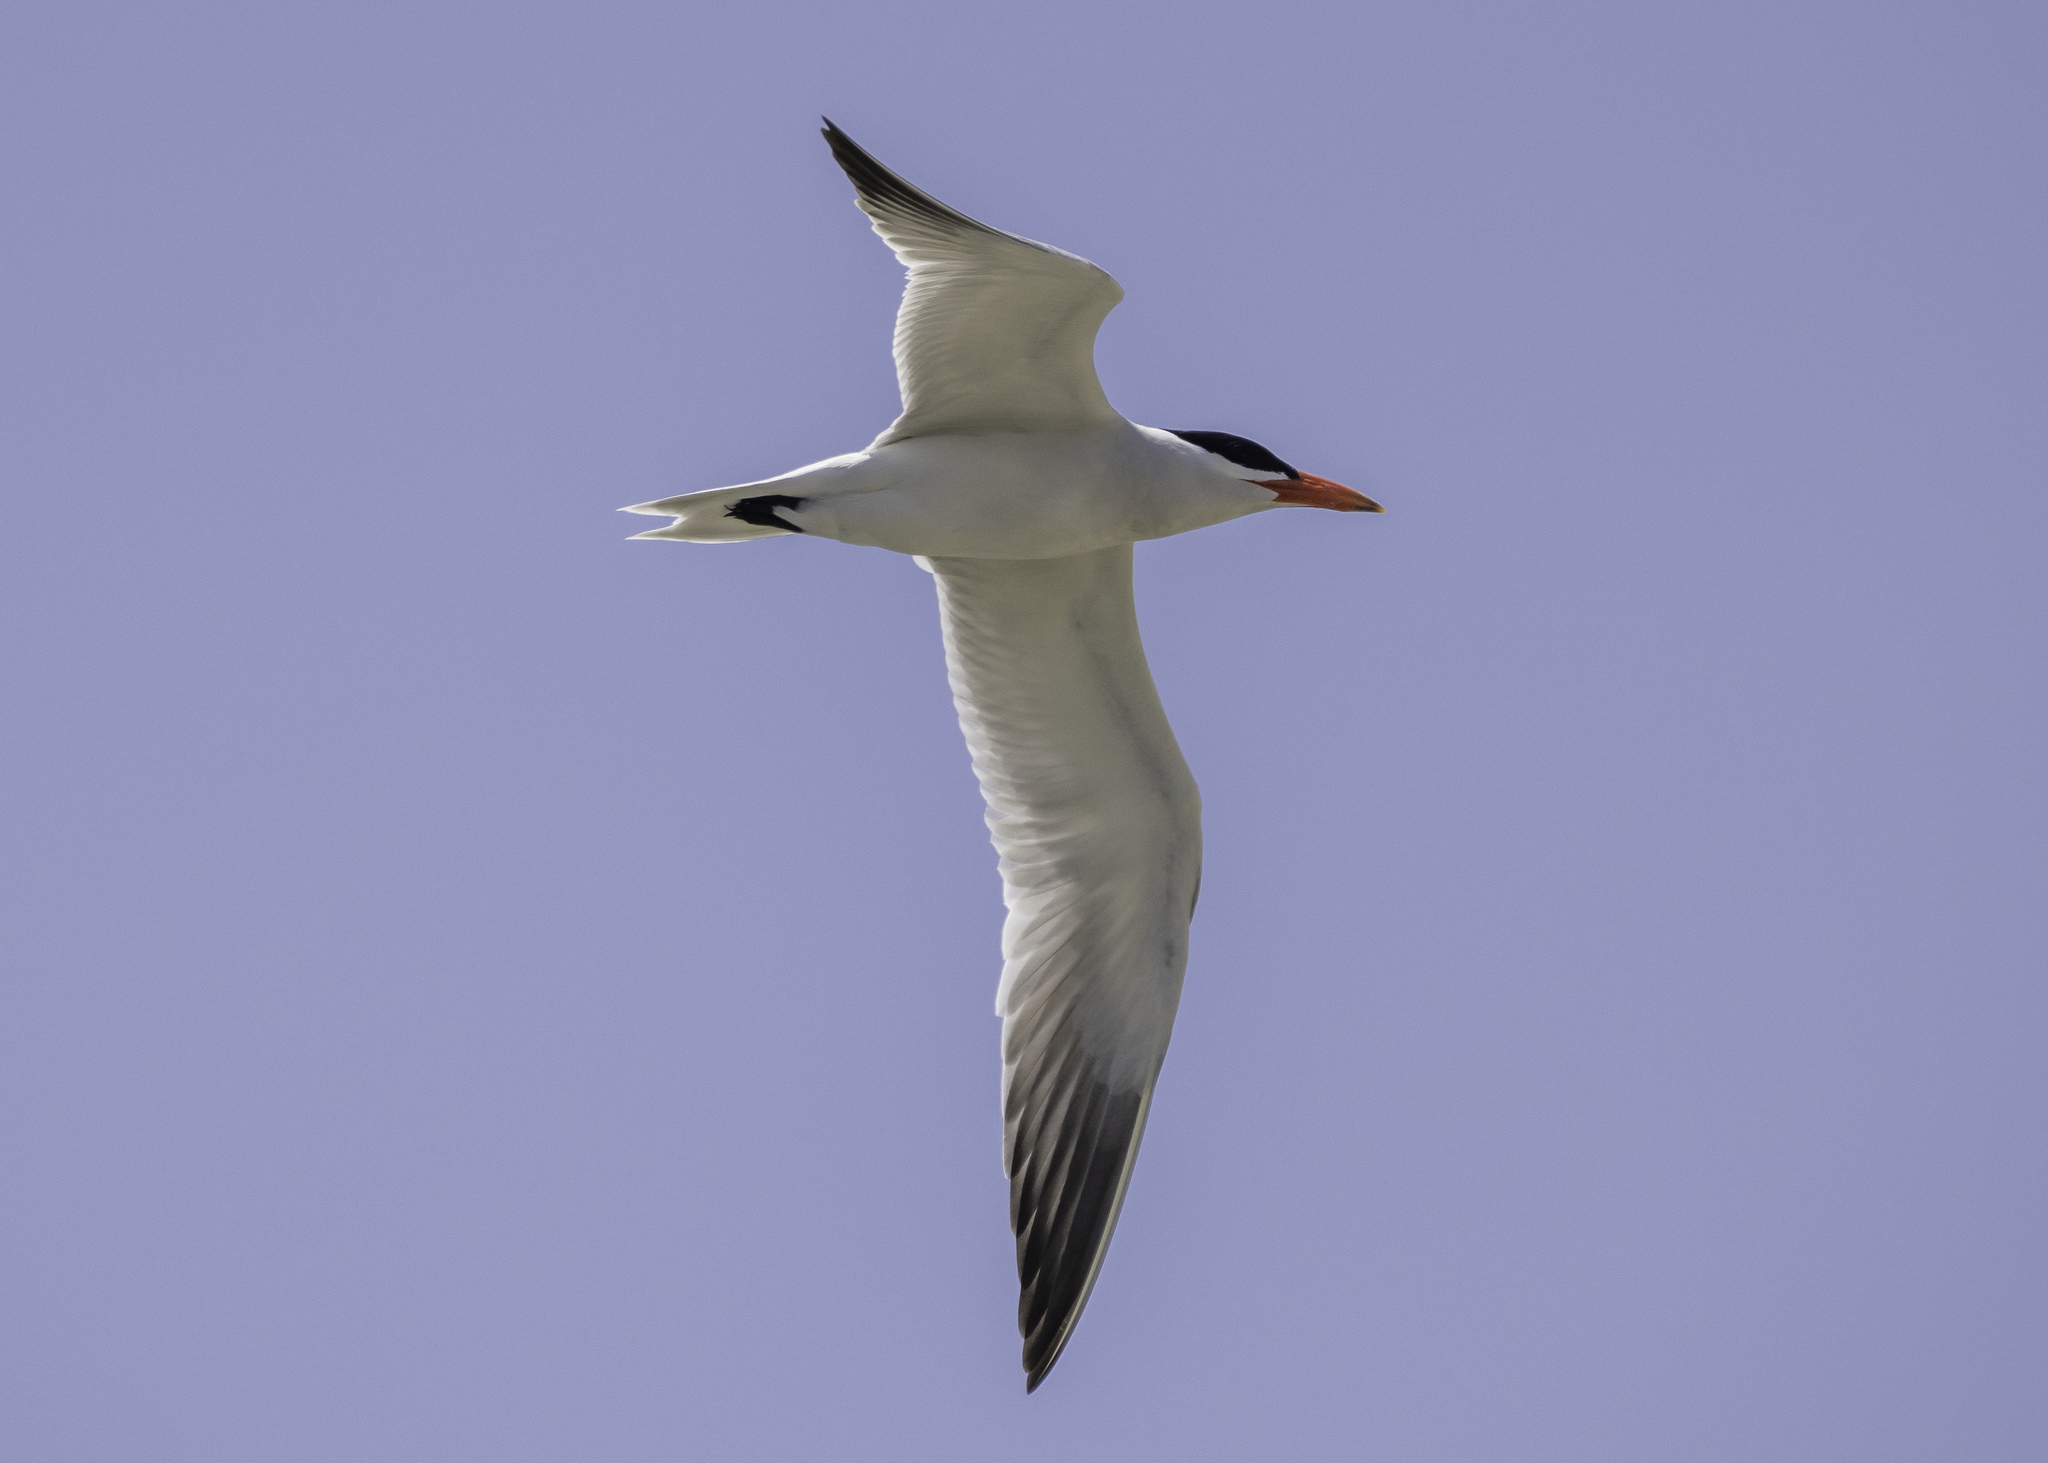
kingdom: Animalia
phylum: Chordata
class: Aves
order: Charadriiformes
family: Laridae
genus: Hydroprogne
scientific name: Hydroprogne caspia
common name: Caspian tern
